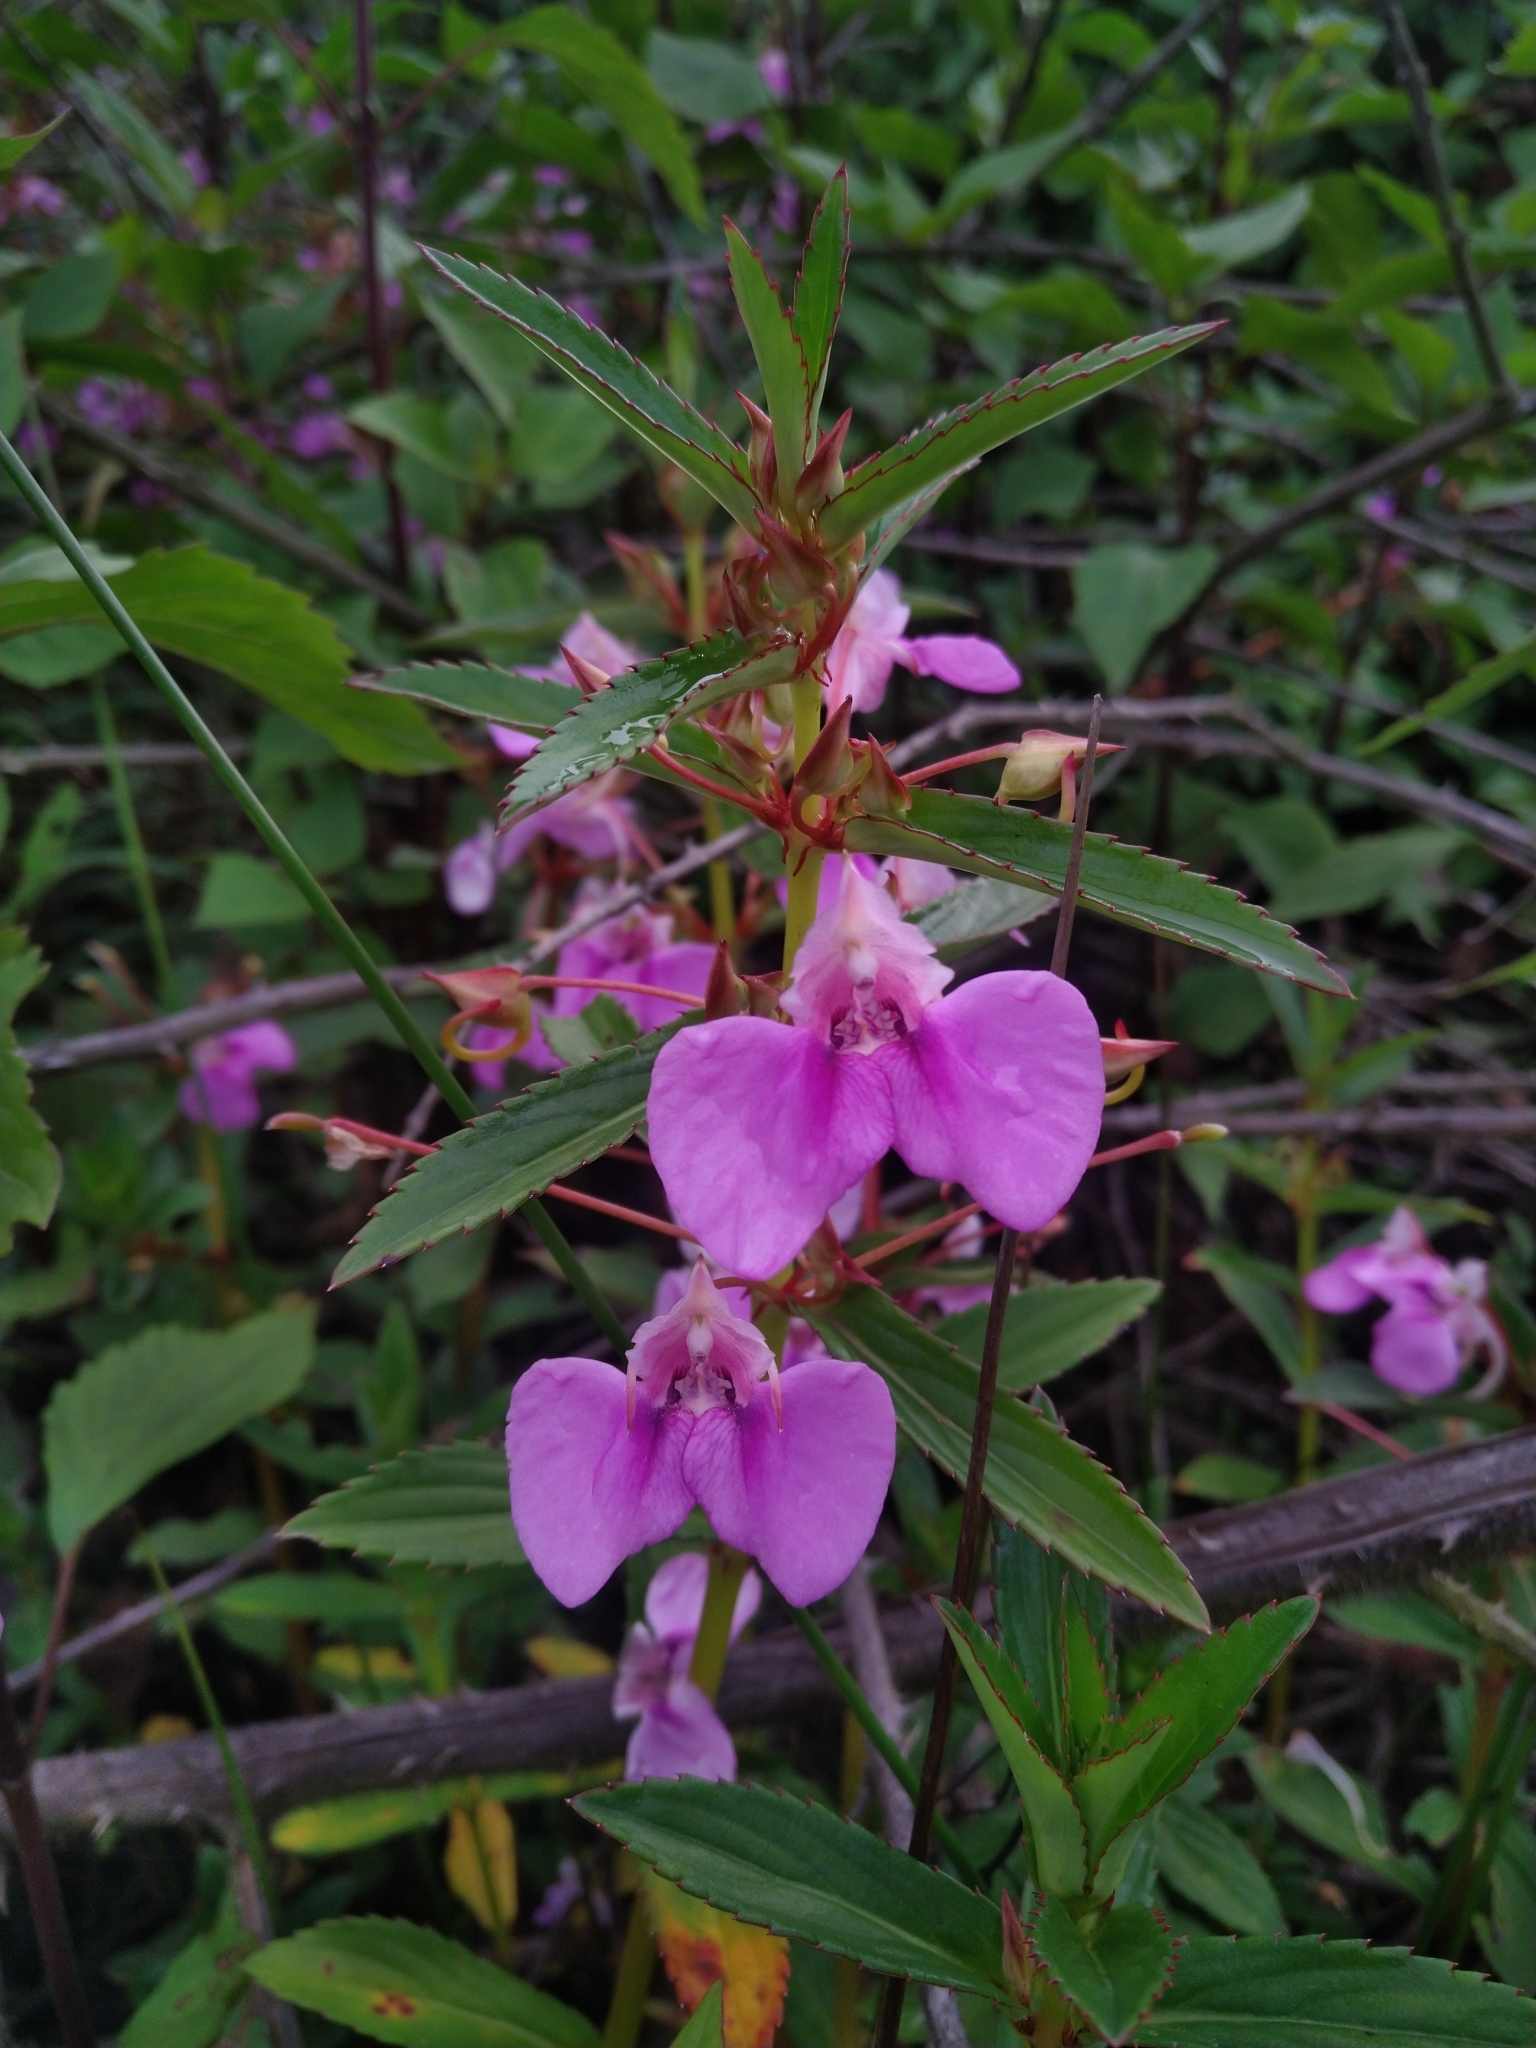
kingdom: Plantae
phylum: Tracheophyta
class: Magnoliopsida
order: Ericales
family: Balsaminaceae
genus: Impatiens
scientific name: Impatiens balsamina
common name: Balsam
